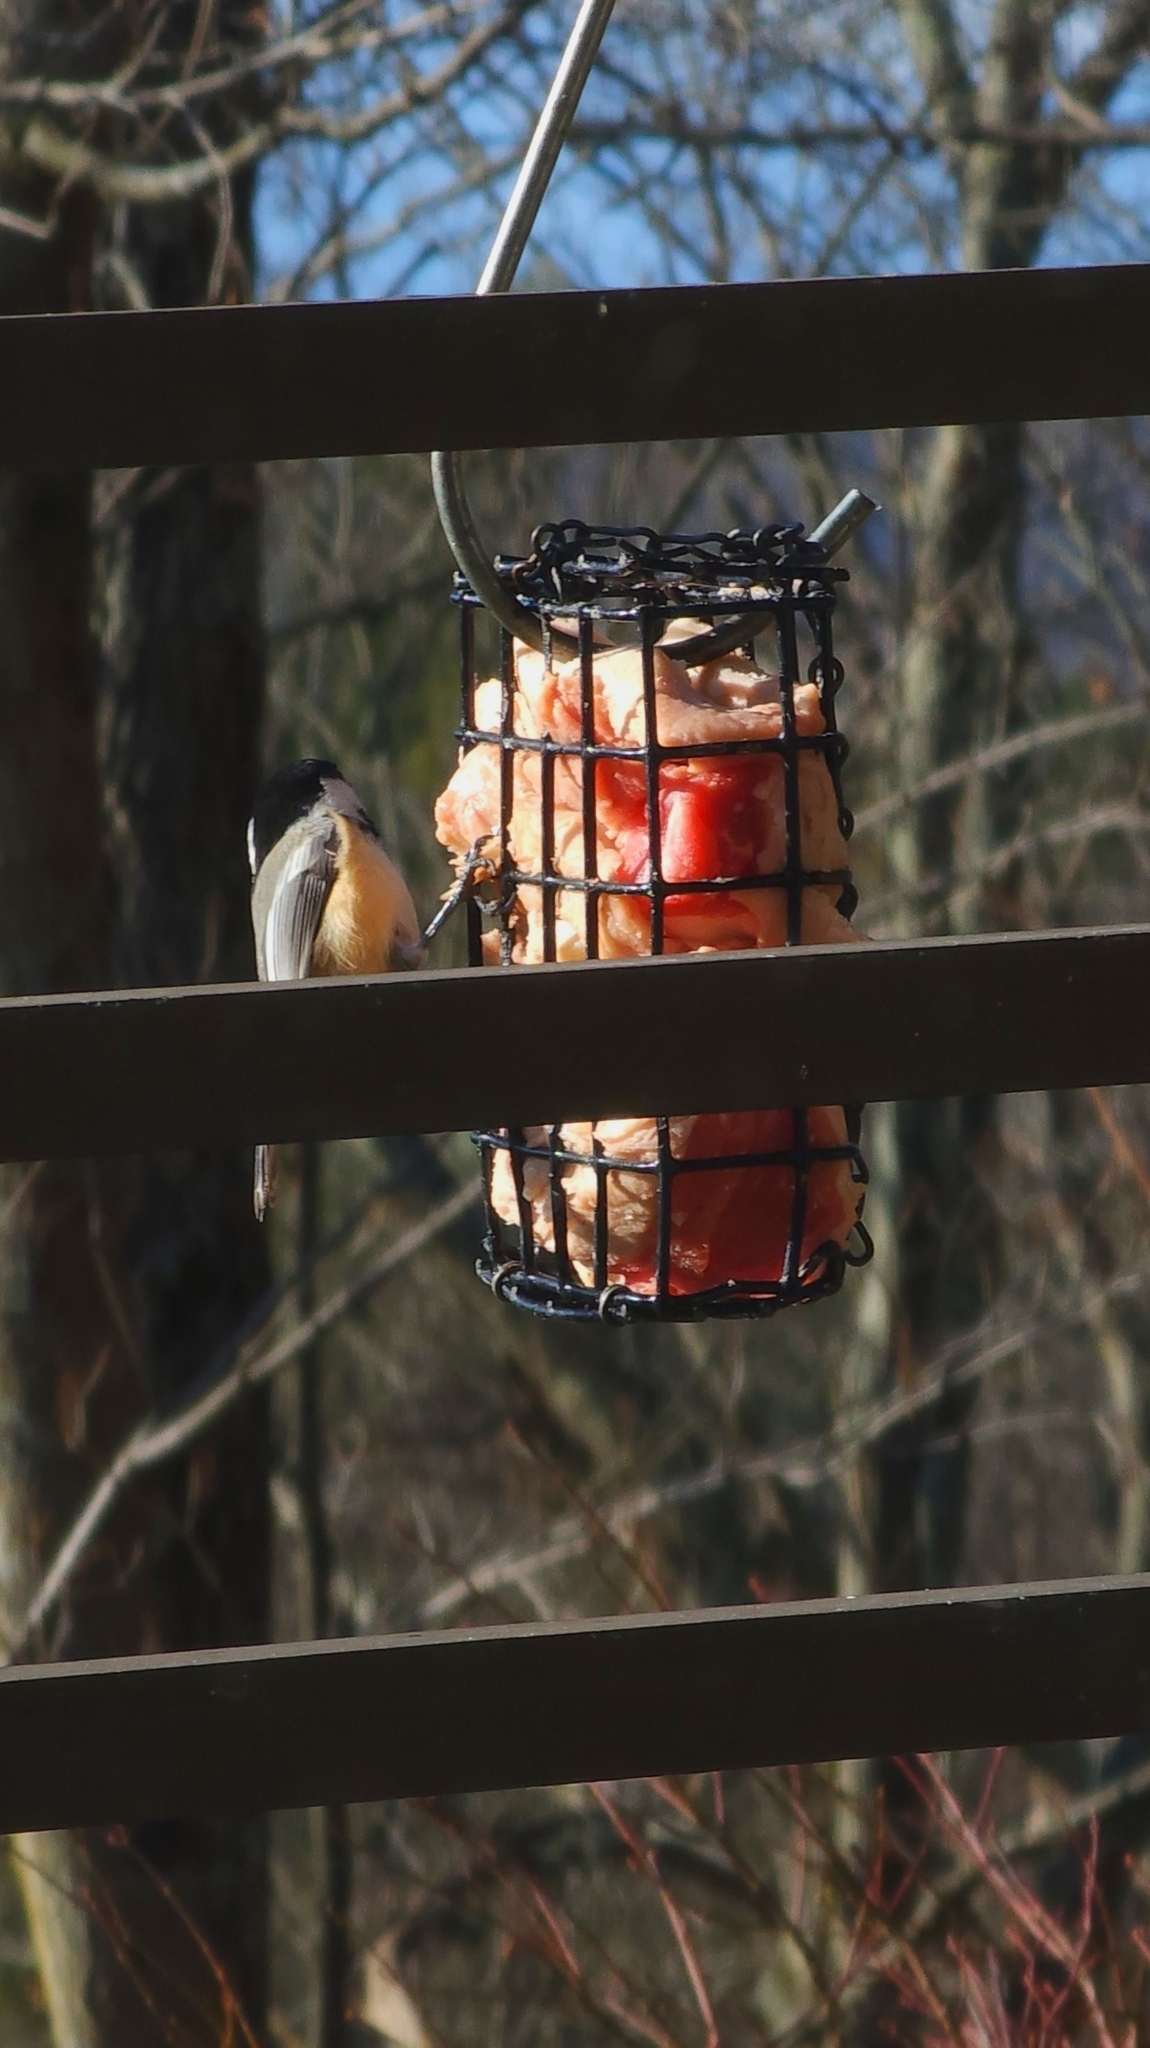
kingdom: Animalia
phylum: Chordata
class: Aves
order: Passeriformes
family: Paridae
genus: Poecile
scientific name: Poecile atricapillus
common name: Black-capped chickadee
